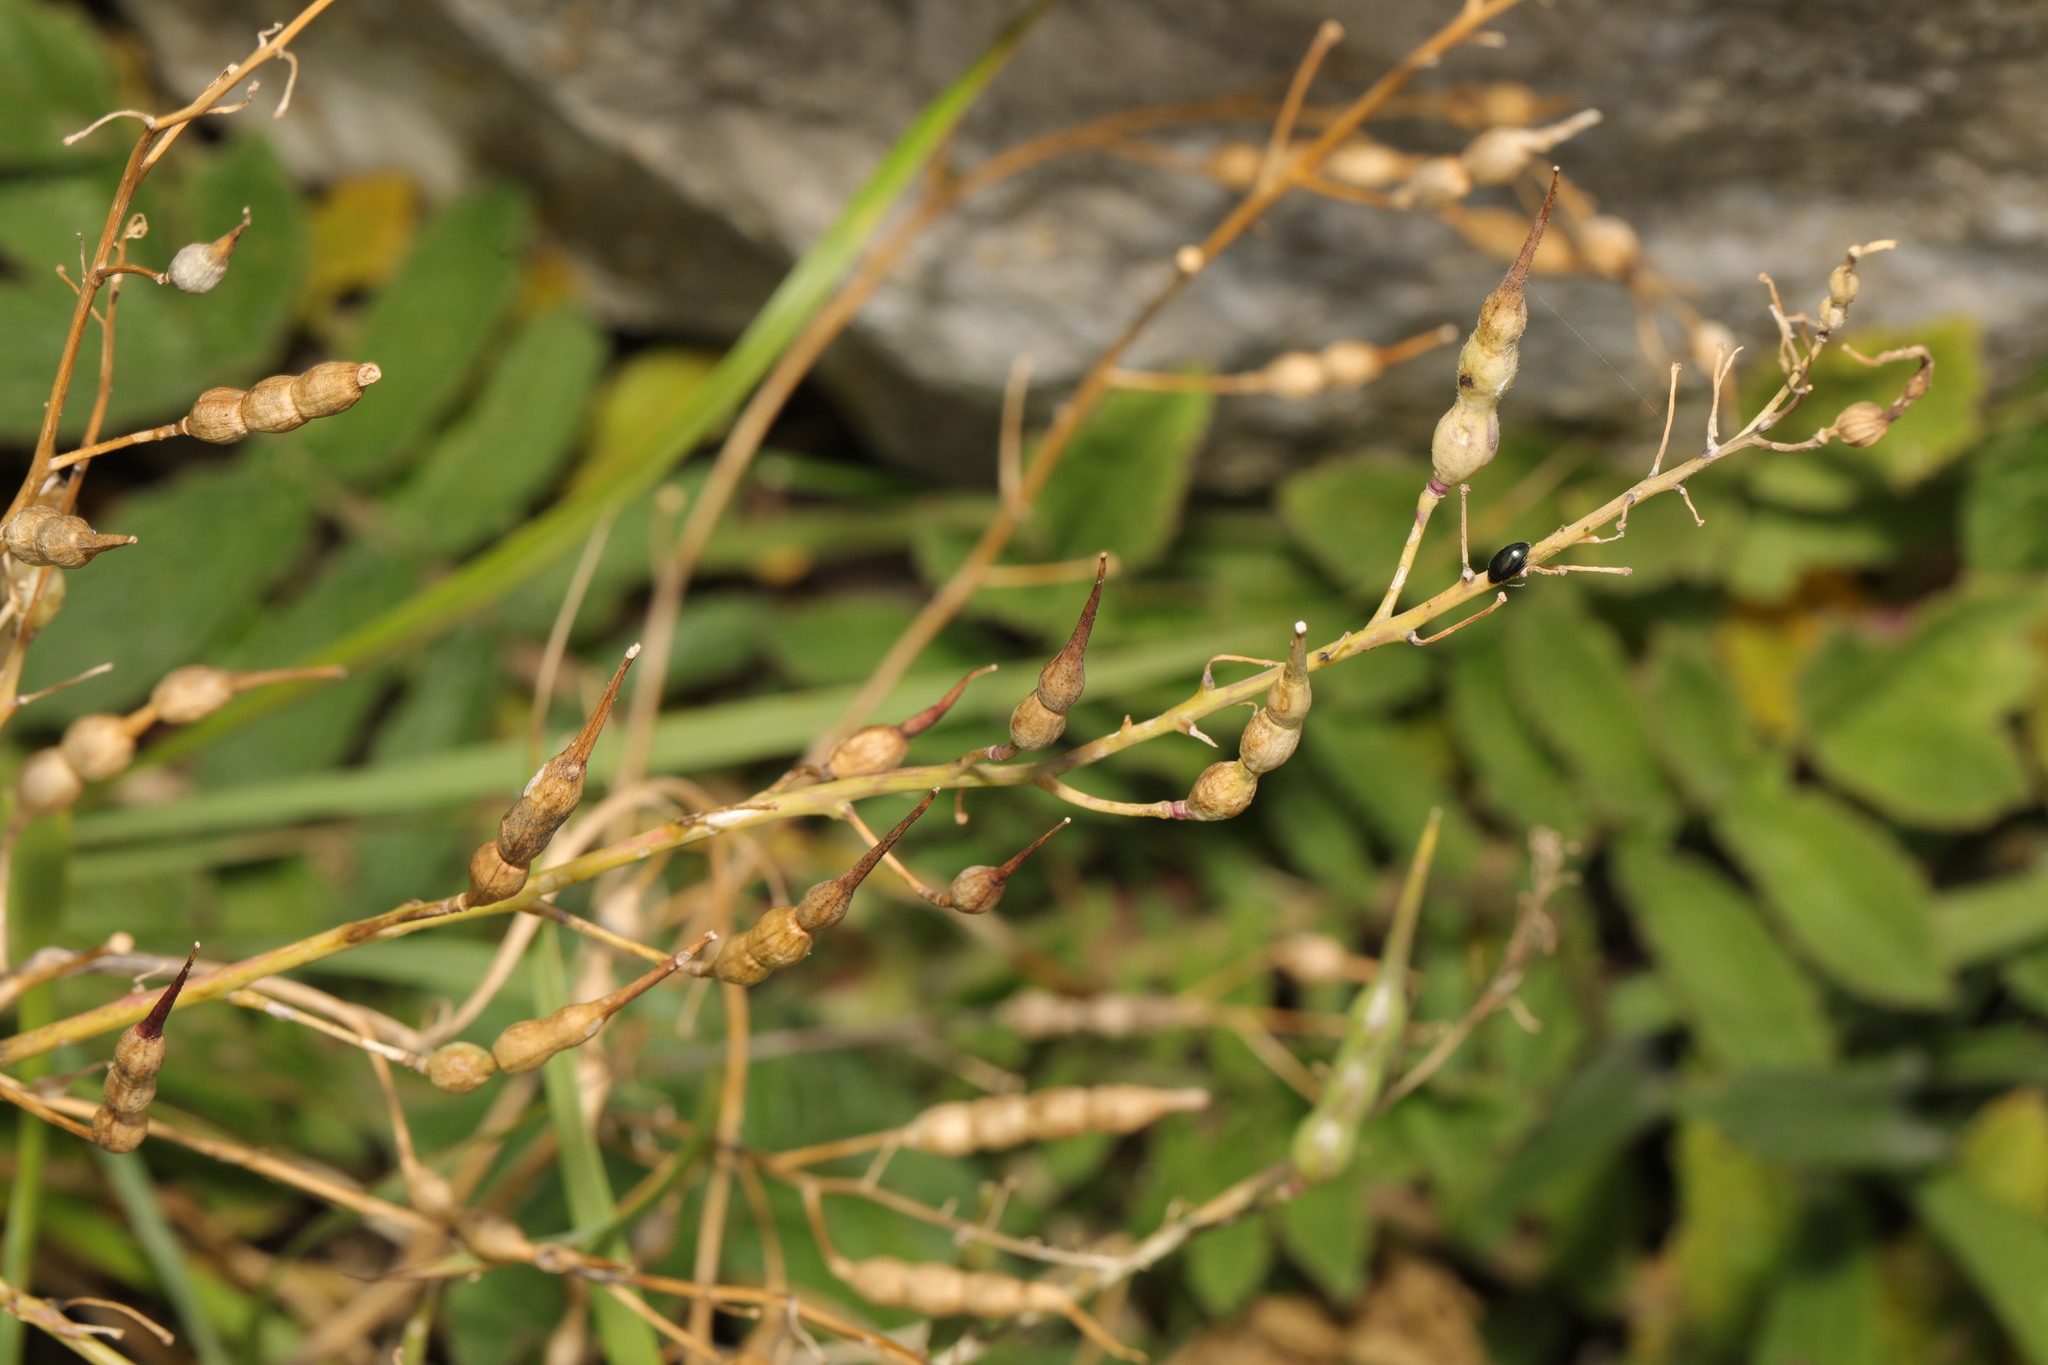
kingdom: Plantae
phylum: Tracheophyta
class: Magnoliopsida
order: Brassicales
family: Brassicaceae
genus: Raphanus
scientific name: Raphanus raphanistrum
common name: Wild radish
